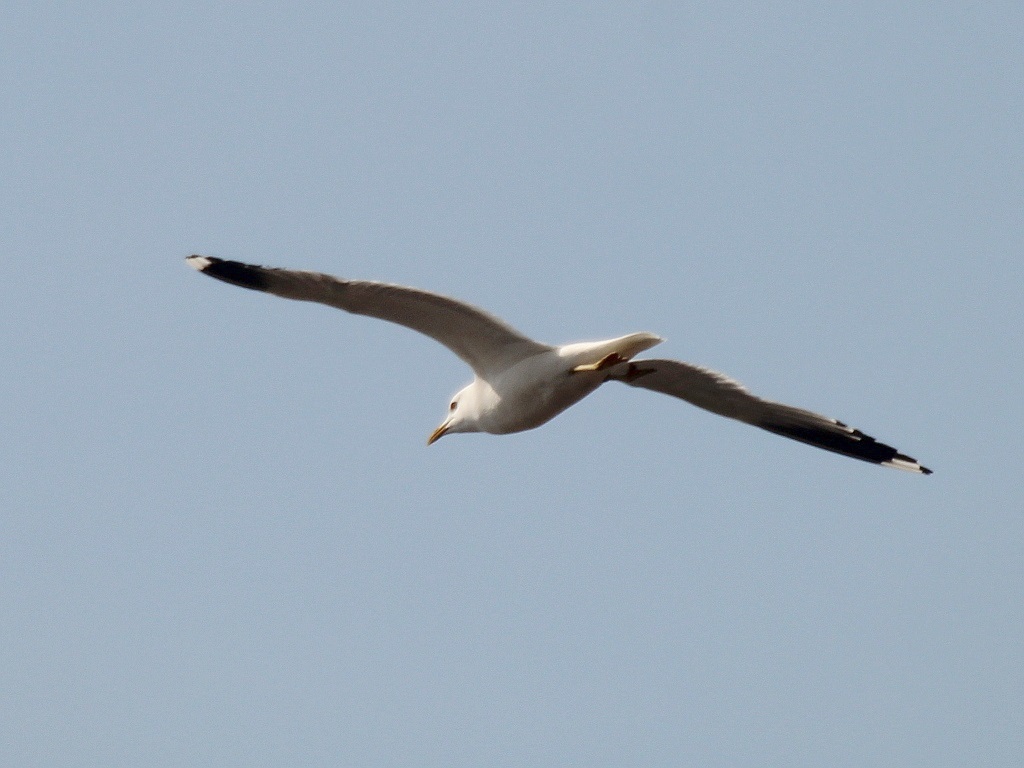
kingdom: Animalia
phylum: Chordata
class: Aves
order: Charadriiformes
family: Laridae
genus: Larus
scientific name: Larus canus
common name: Mew gull
